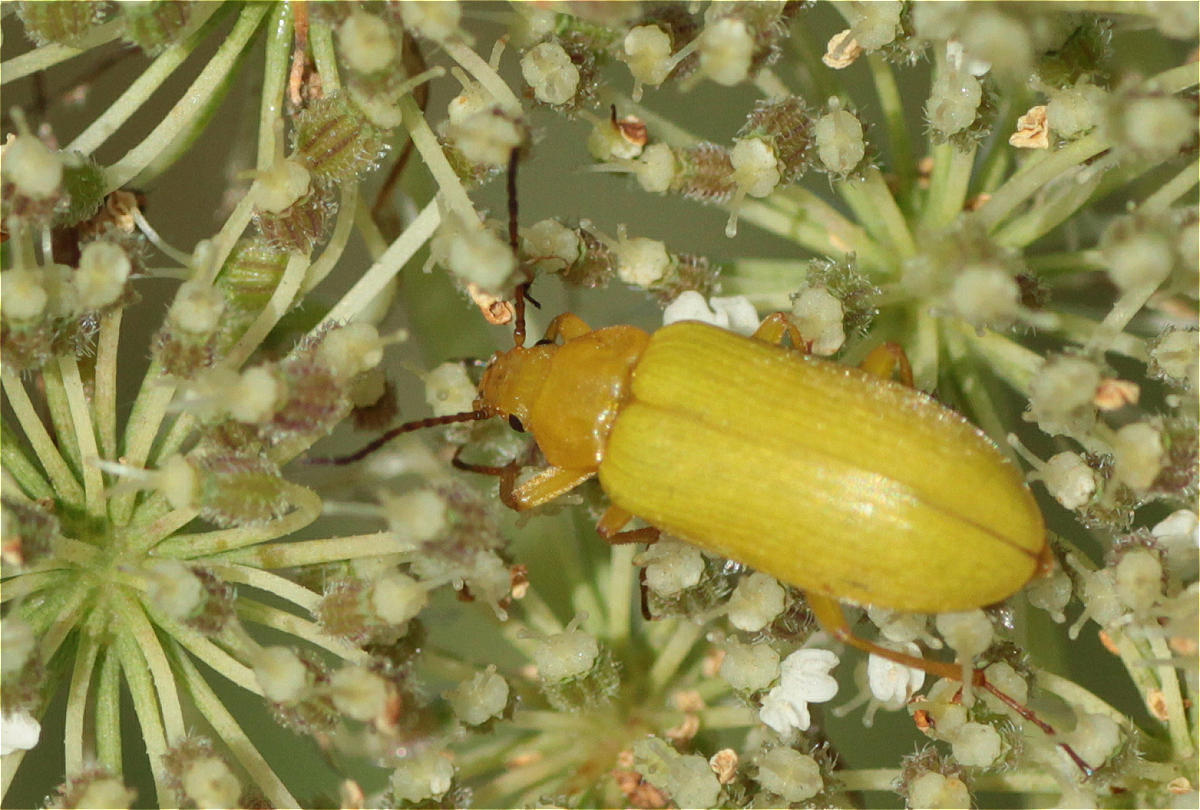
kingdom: Animalia
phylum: Arthropoda
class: Insecta
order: Coleoptera
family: Tenebrionidae
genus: Cteniopus
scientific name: Cteniopus sulphureus
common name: Sulphur beetle
